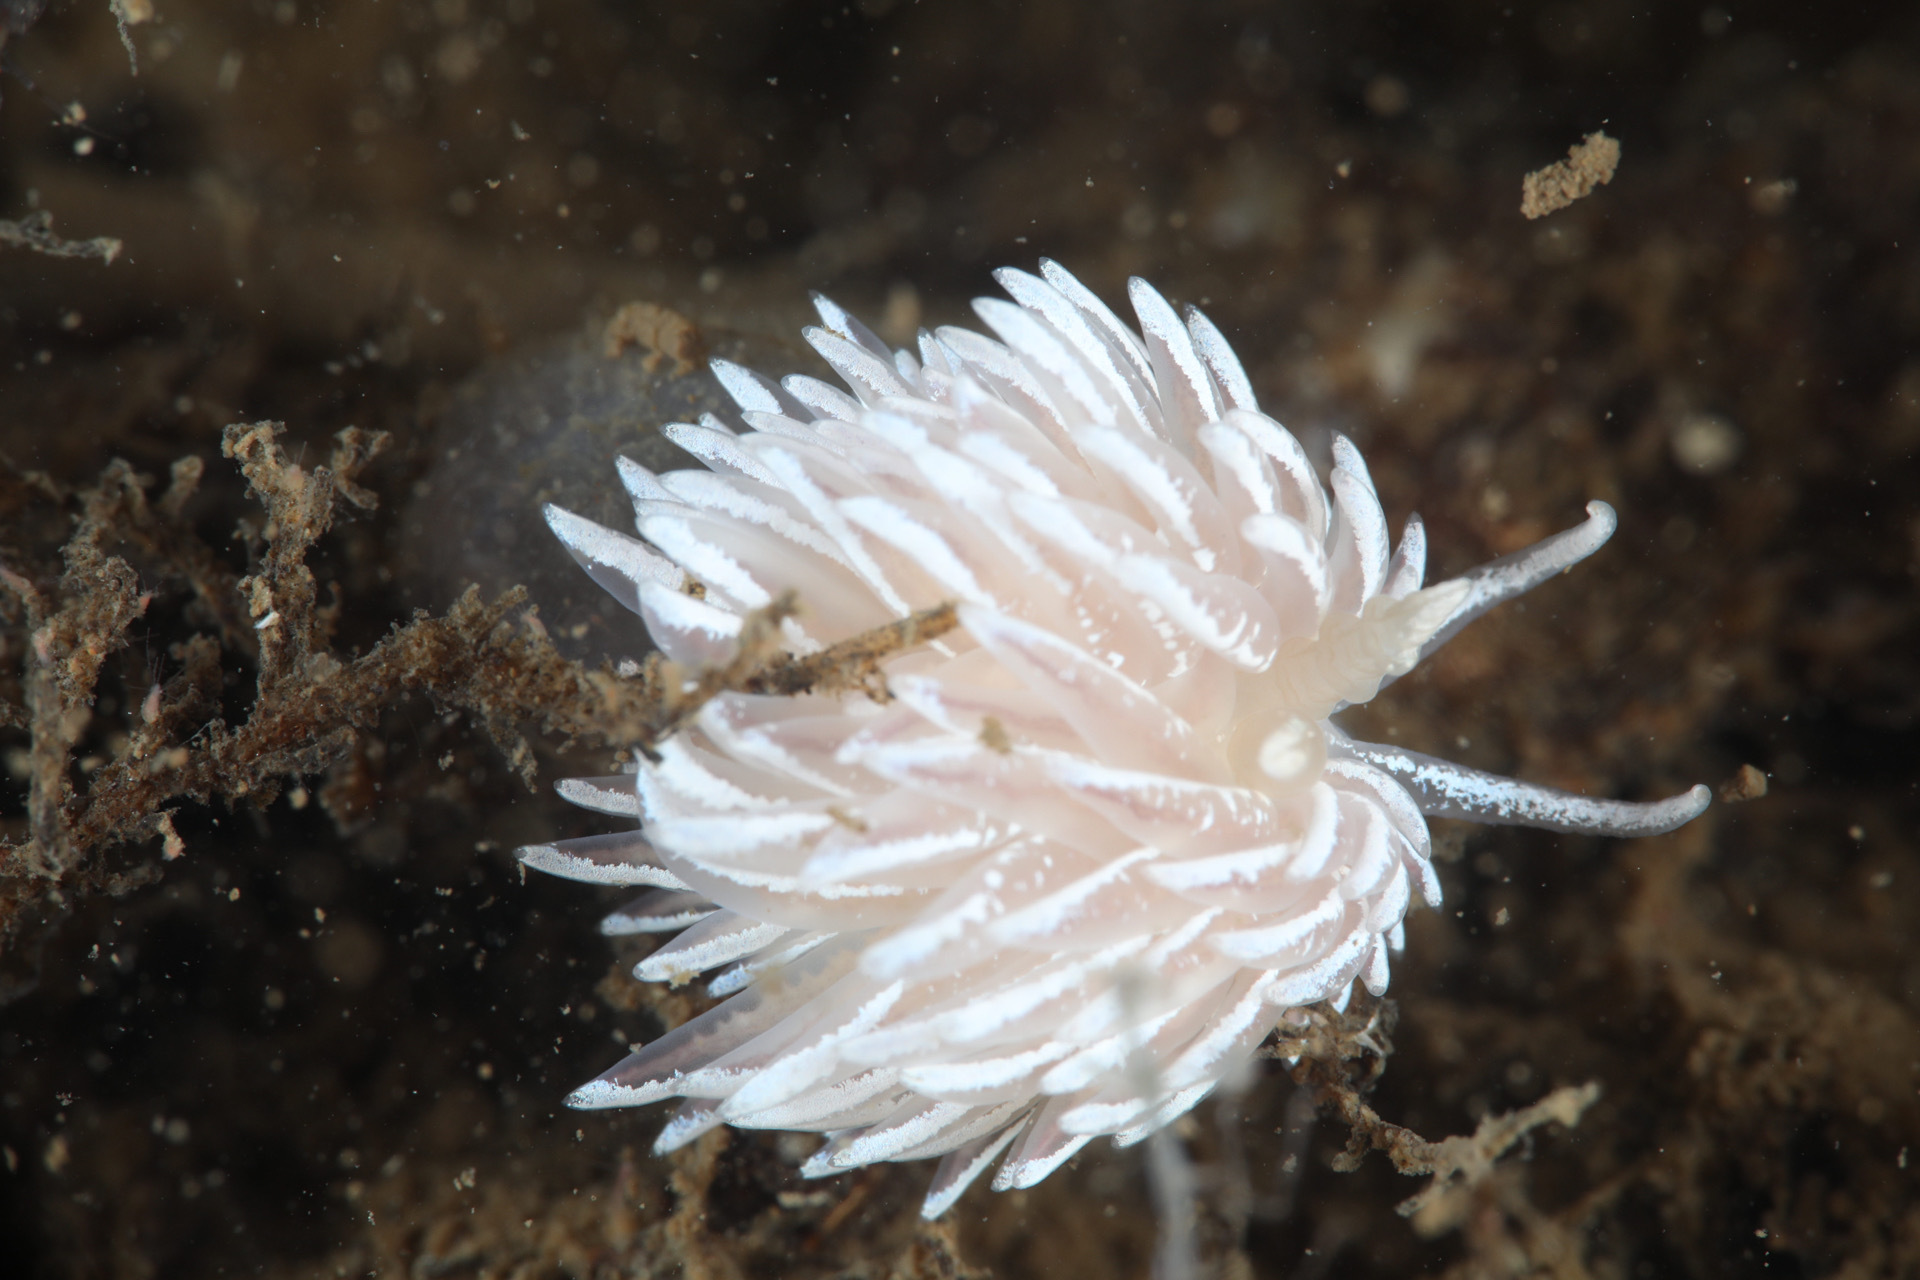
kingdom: Animalia
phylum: Mollusca
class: Gastropoda
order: Nudibranchia
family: Facelinidae
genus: Favorinus
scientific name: Favorinus blianus
